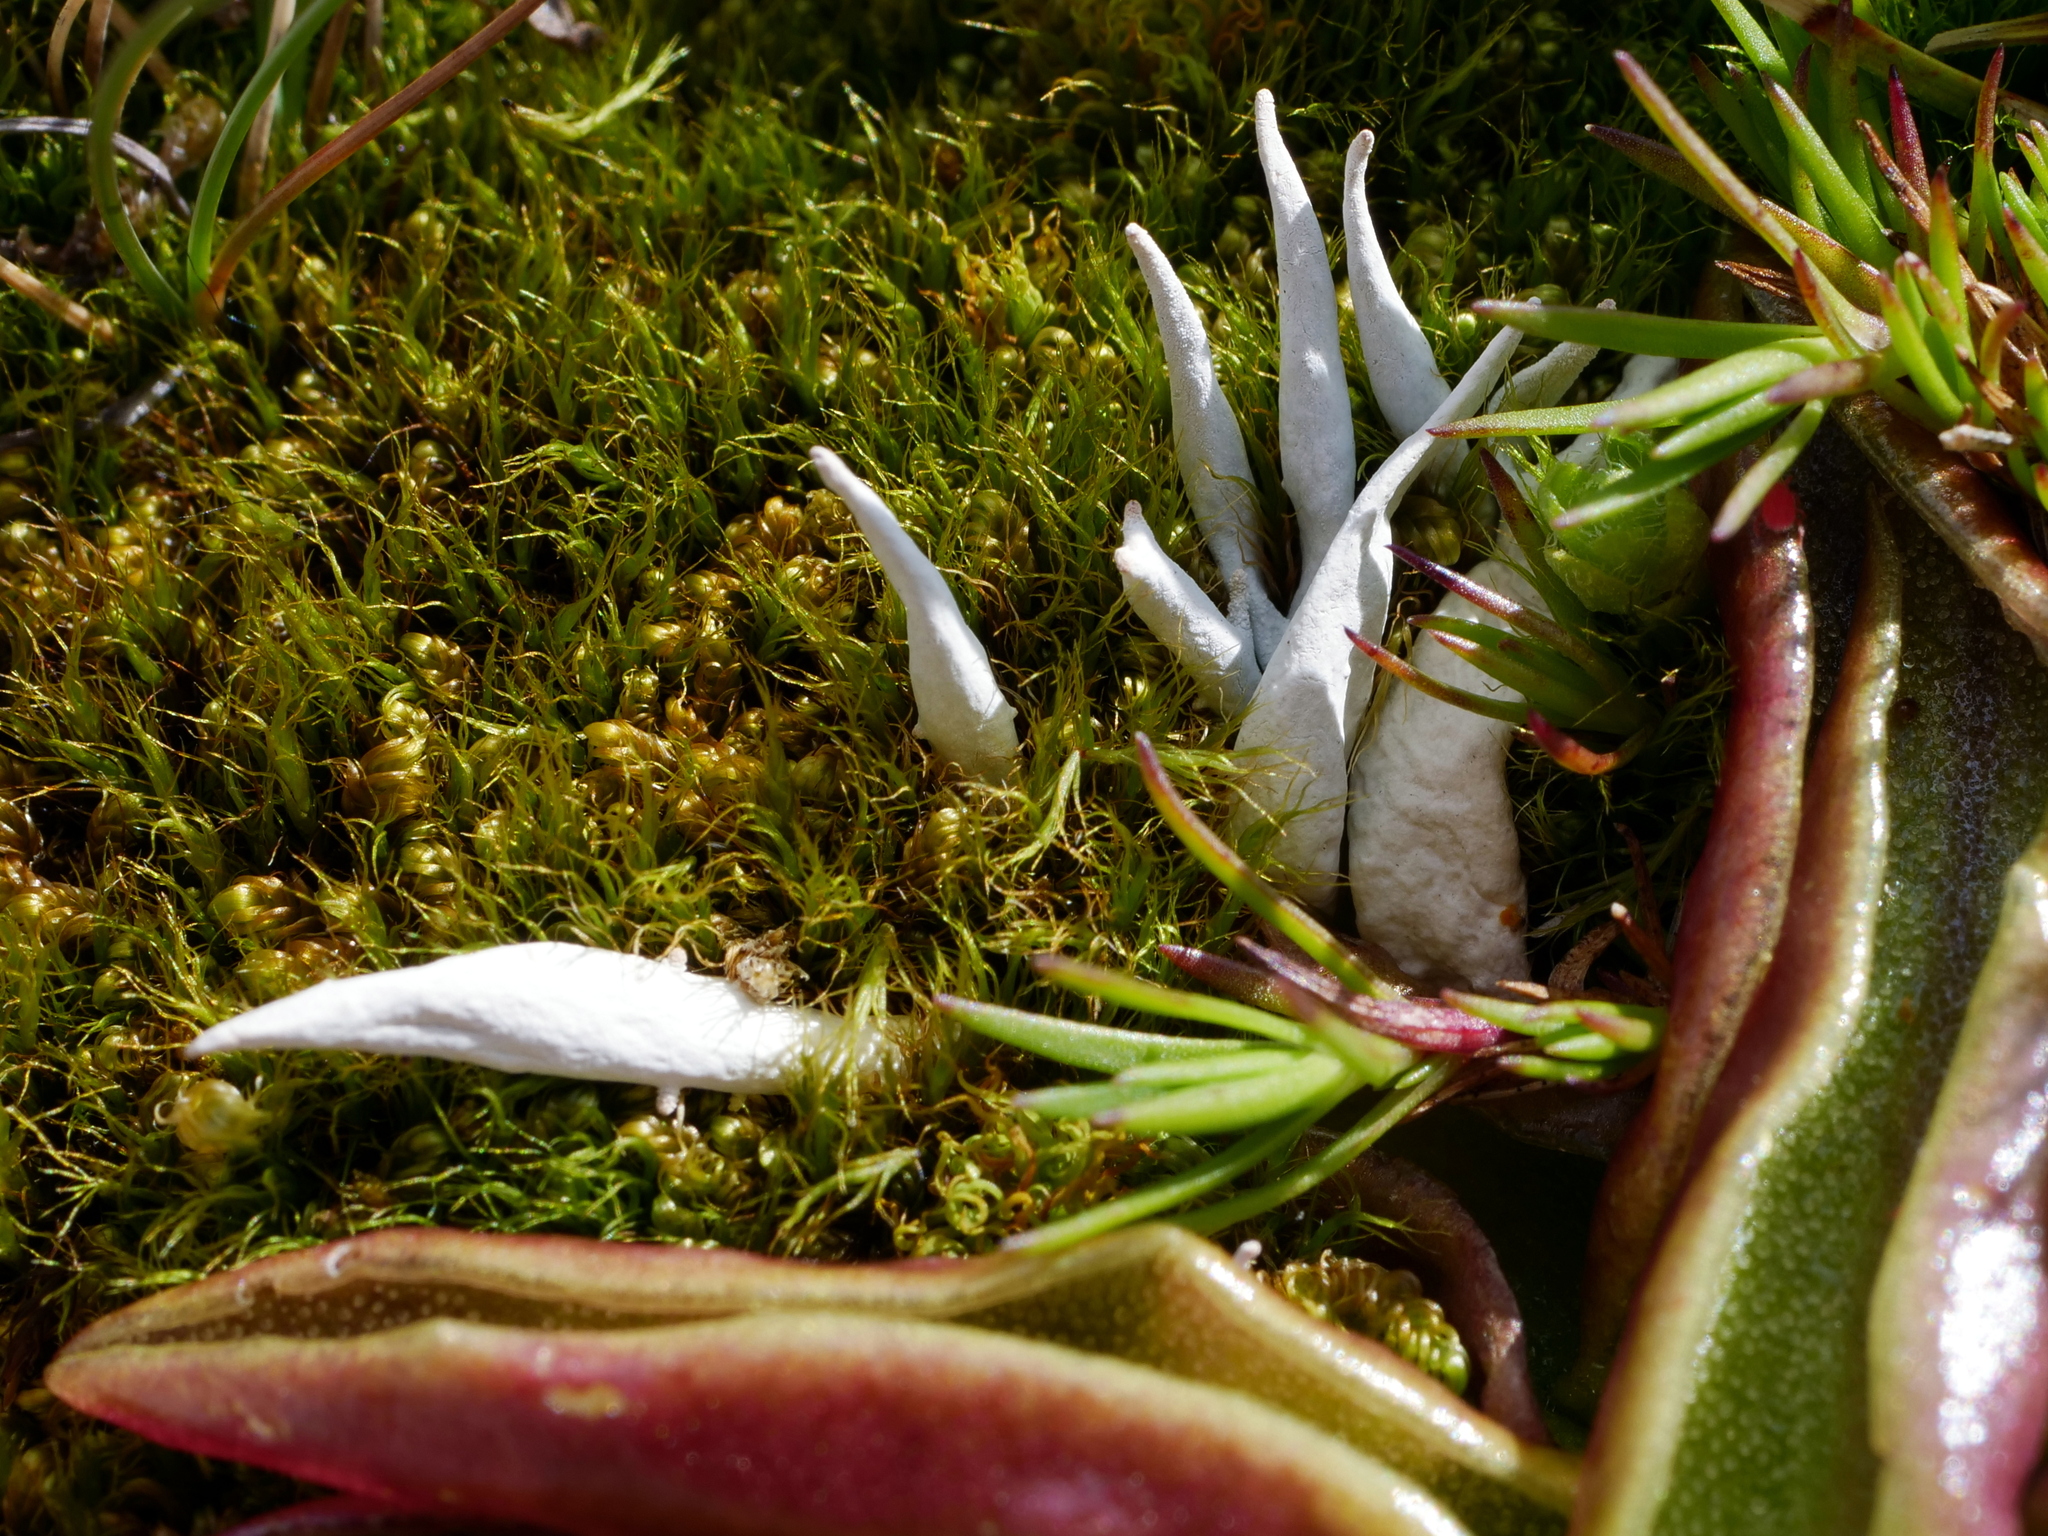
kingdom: Fungi
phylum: Ascomycota
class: Lecanoromycetes
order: Pertusariales
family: Icmadophilaceae
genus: Thamnolia
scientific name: Thamnolia vermicularis
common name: Whiteworm lichen
